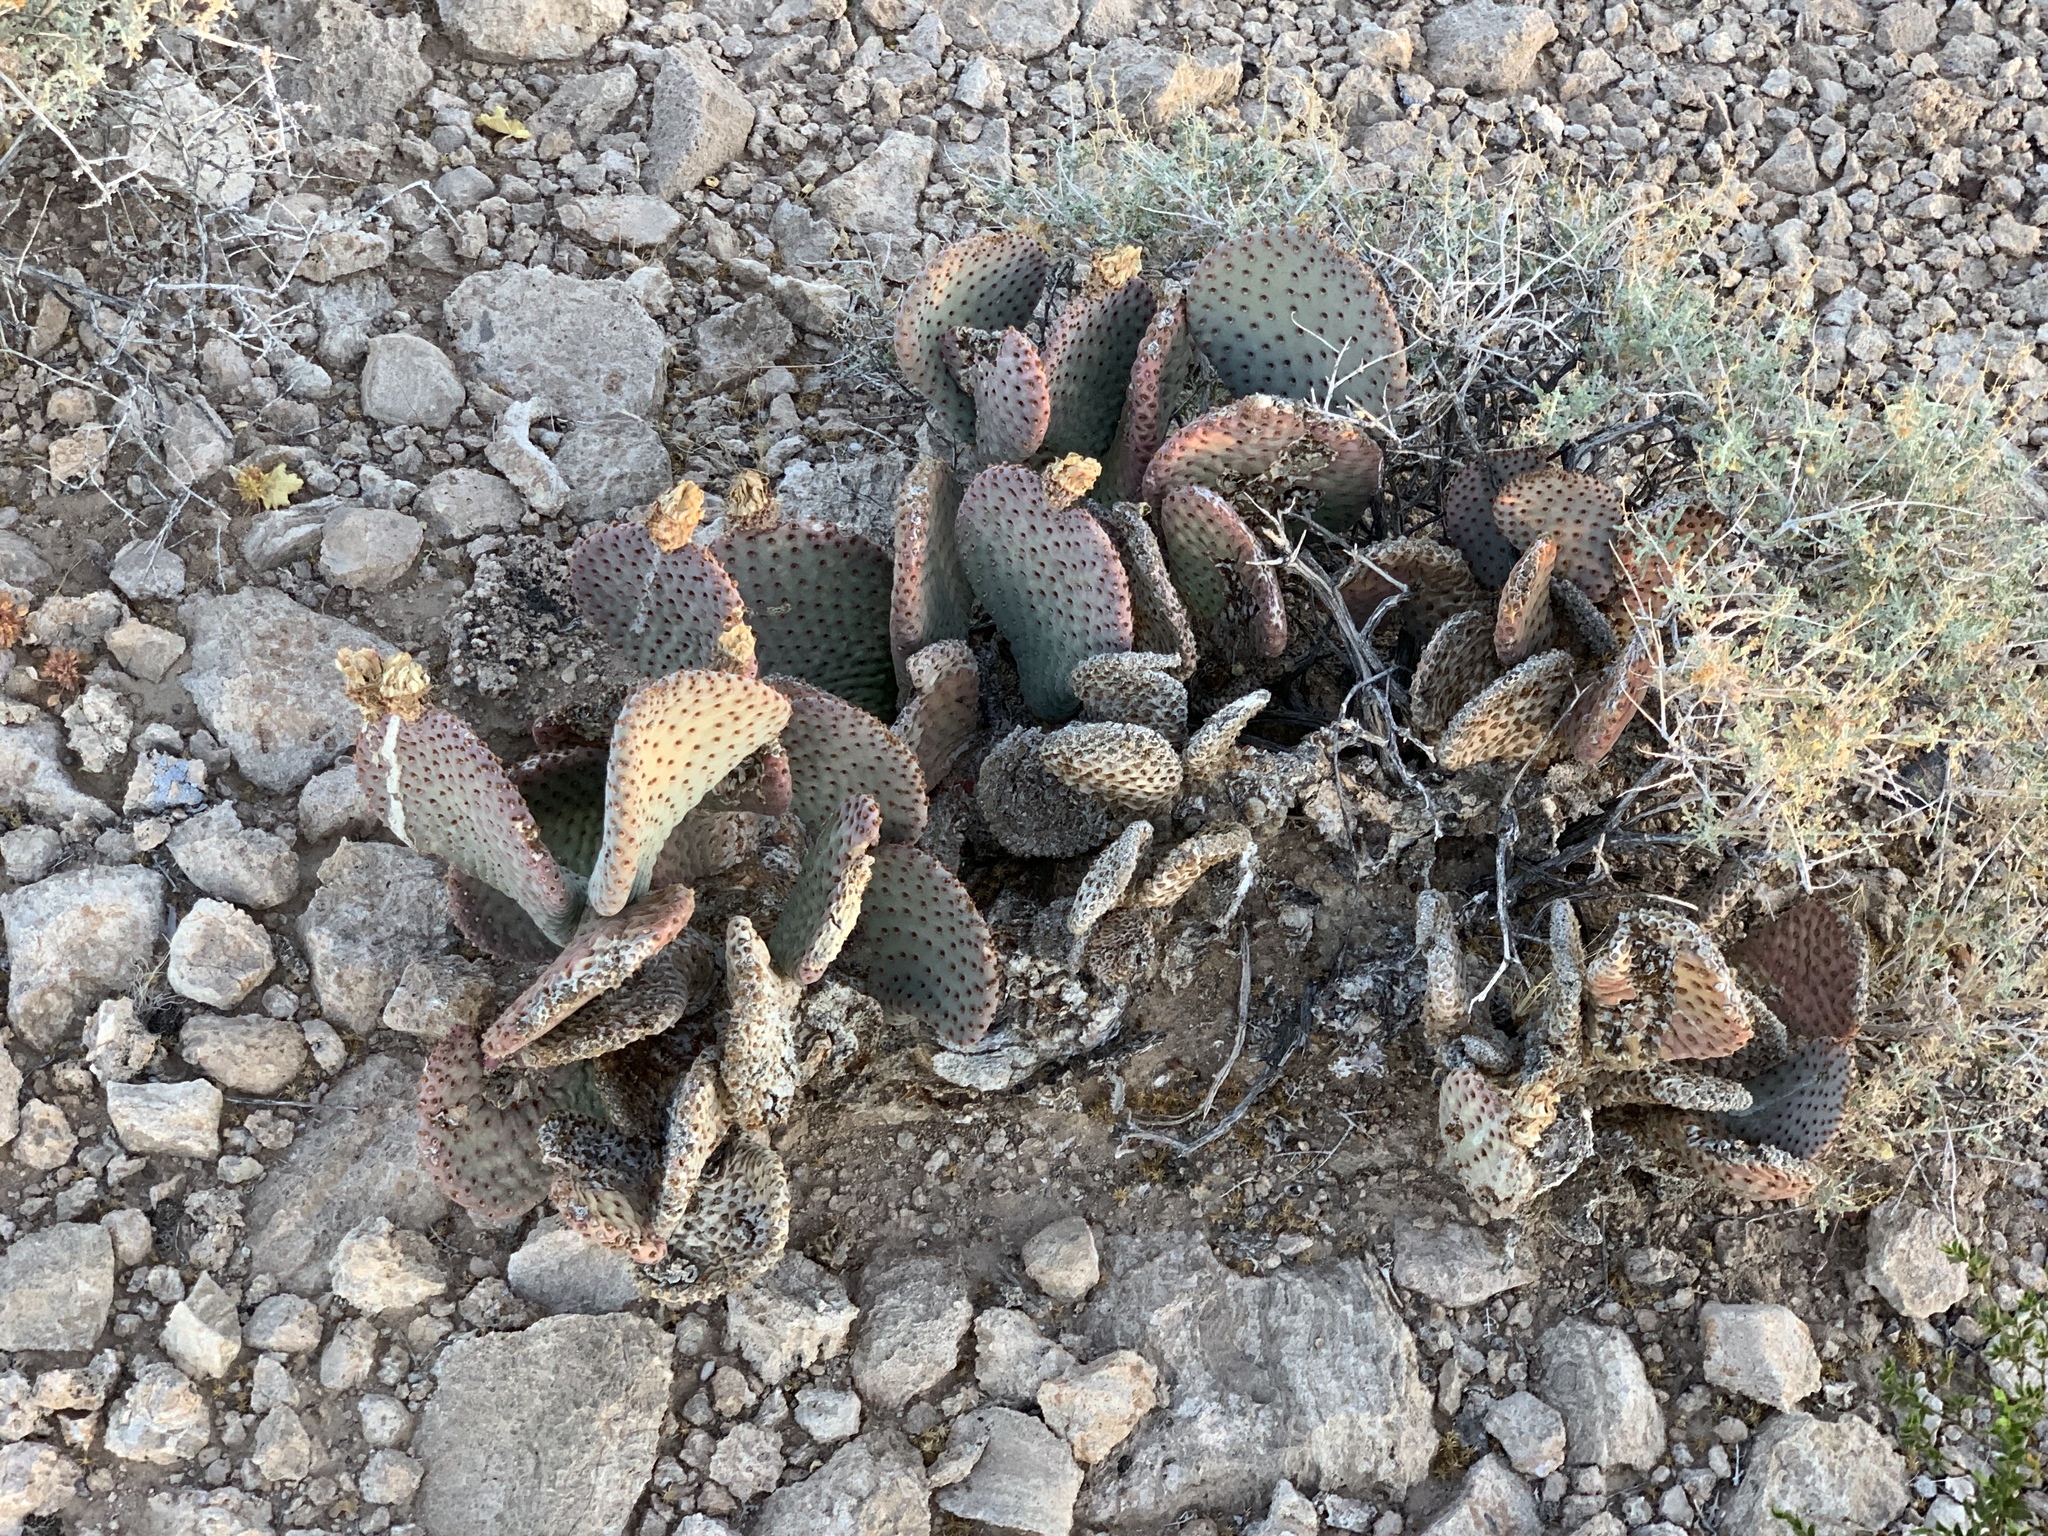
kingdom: Plantae
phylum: Tracheophyta
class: Magnoliopsida
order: Caryophyllales
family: Cactaceae
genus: Opuntia
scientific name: Opuntia basilaris
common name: Beavertail prickly-pear
